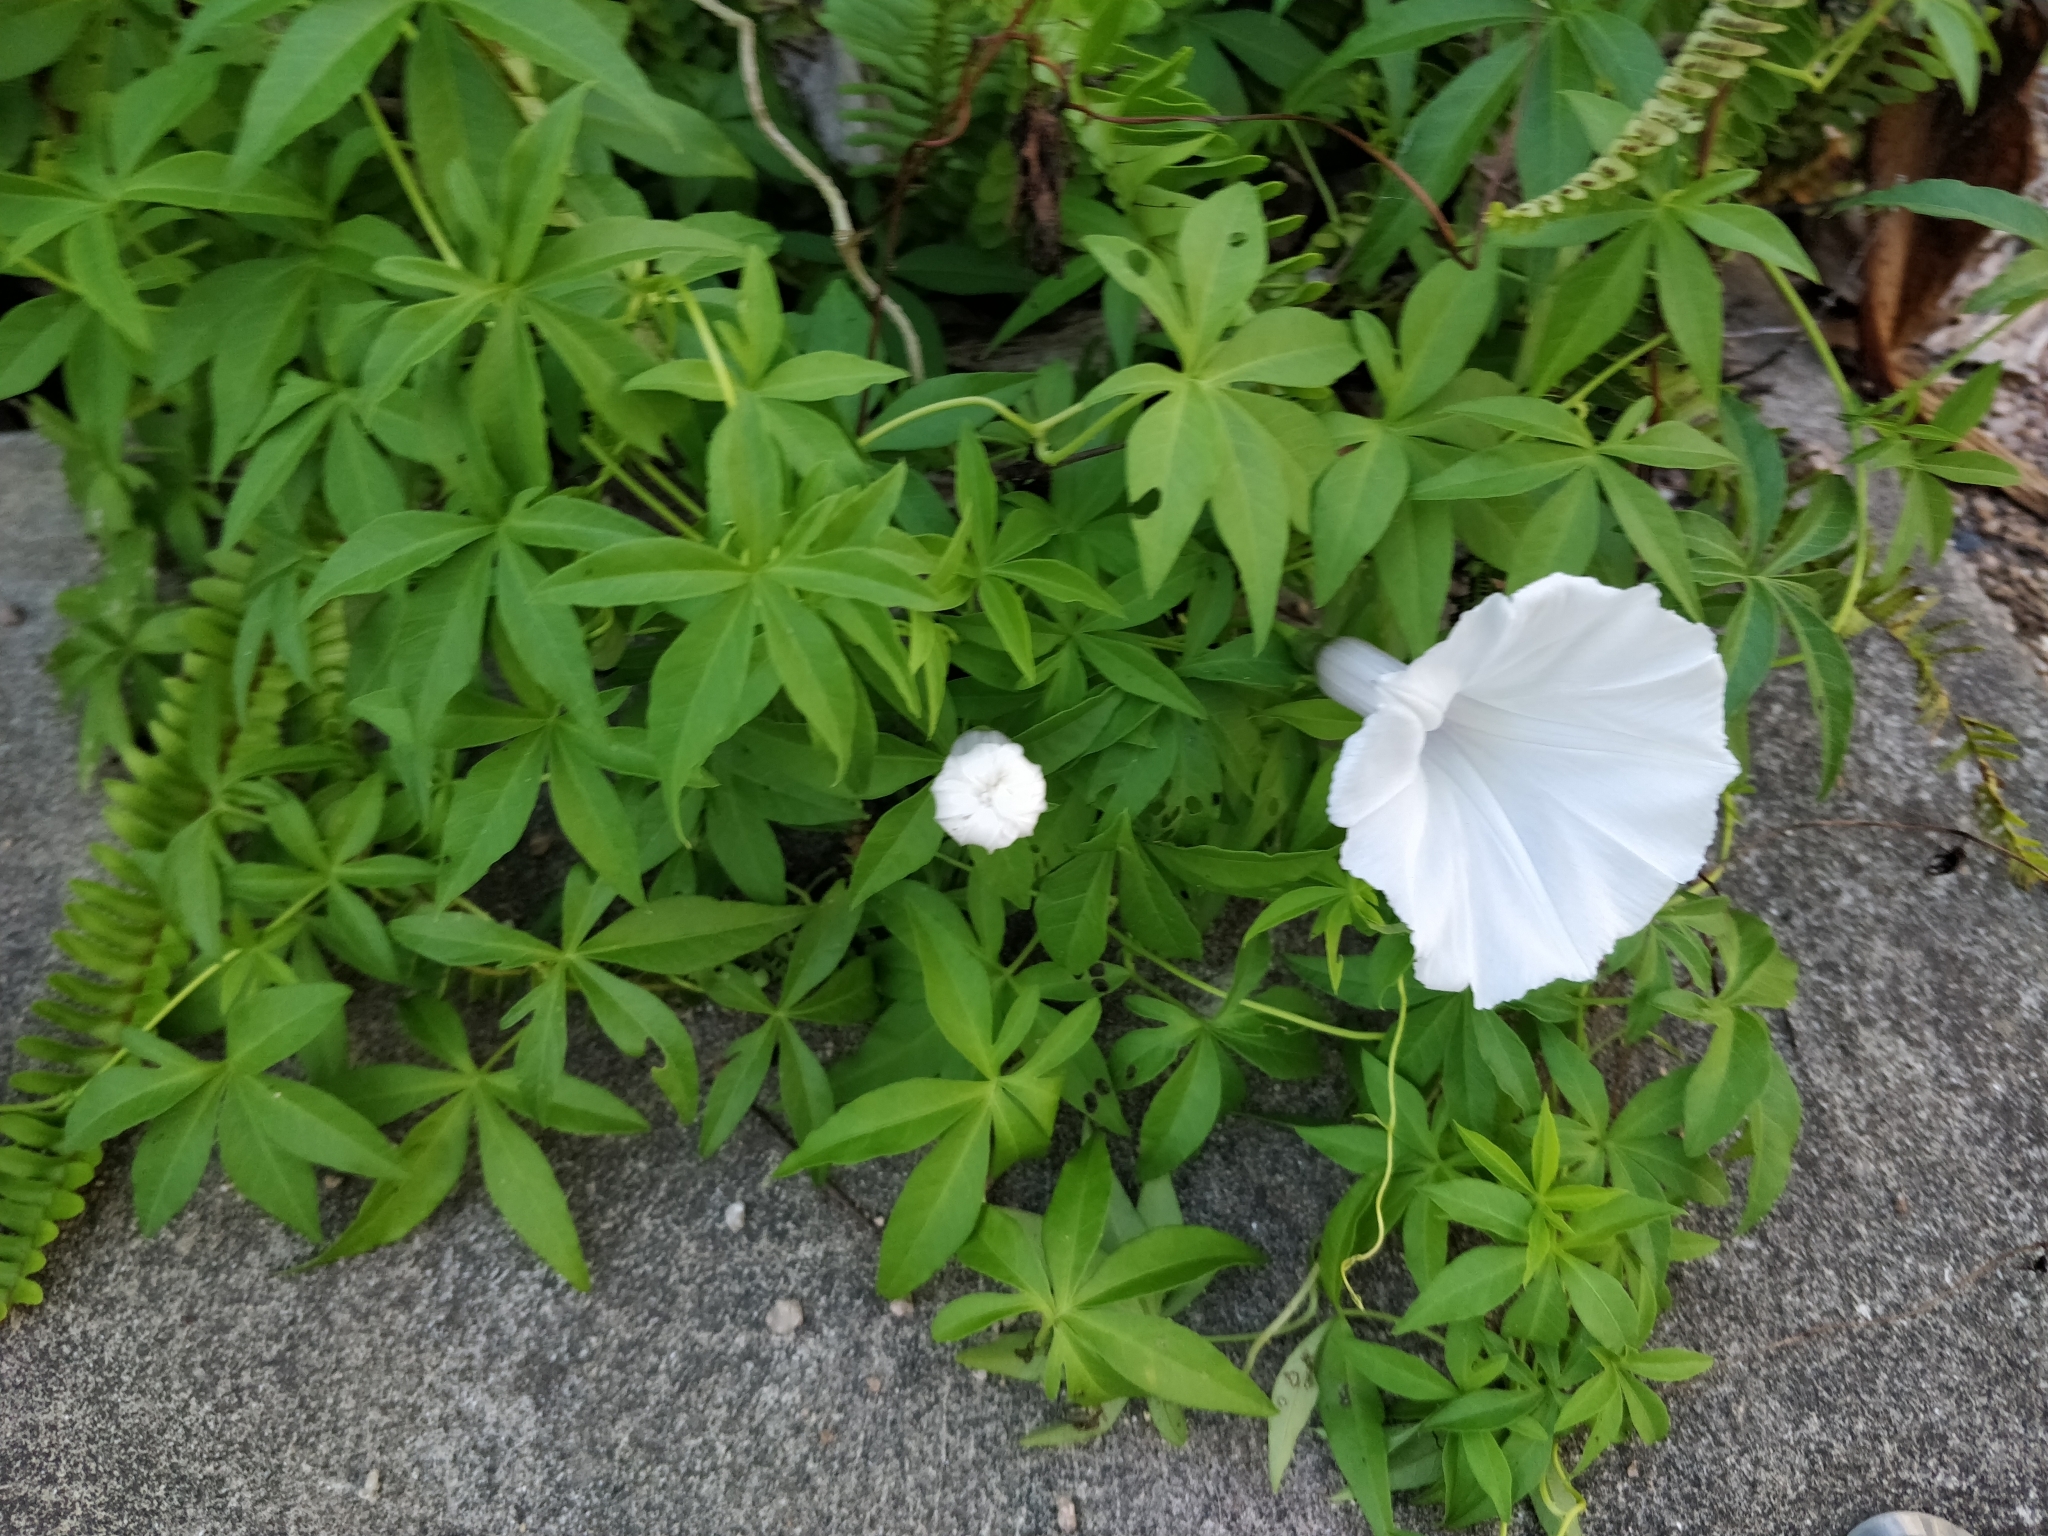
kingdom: Plantae
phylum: Tracheophyta
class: Magnoliopsida
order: Solanales
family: Convolvulaceae
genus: Ipomoea
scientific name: Ipomoea cairica
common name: Mile a minute vine
